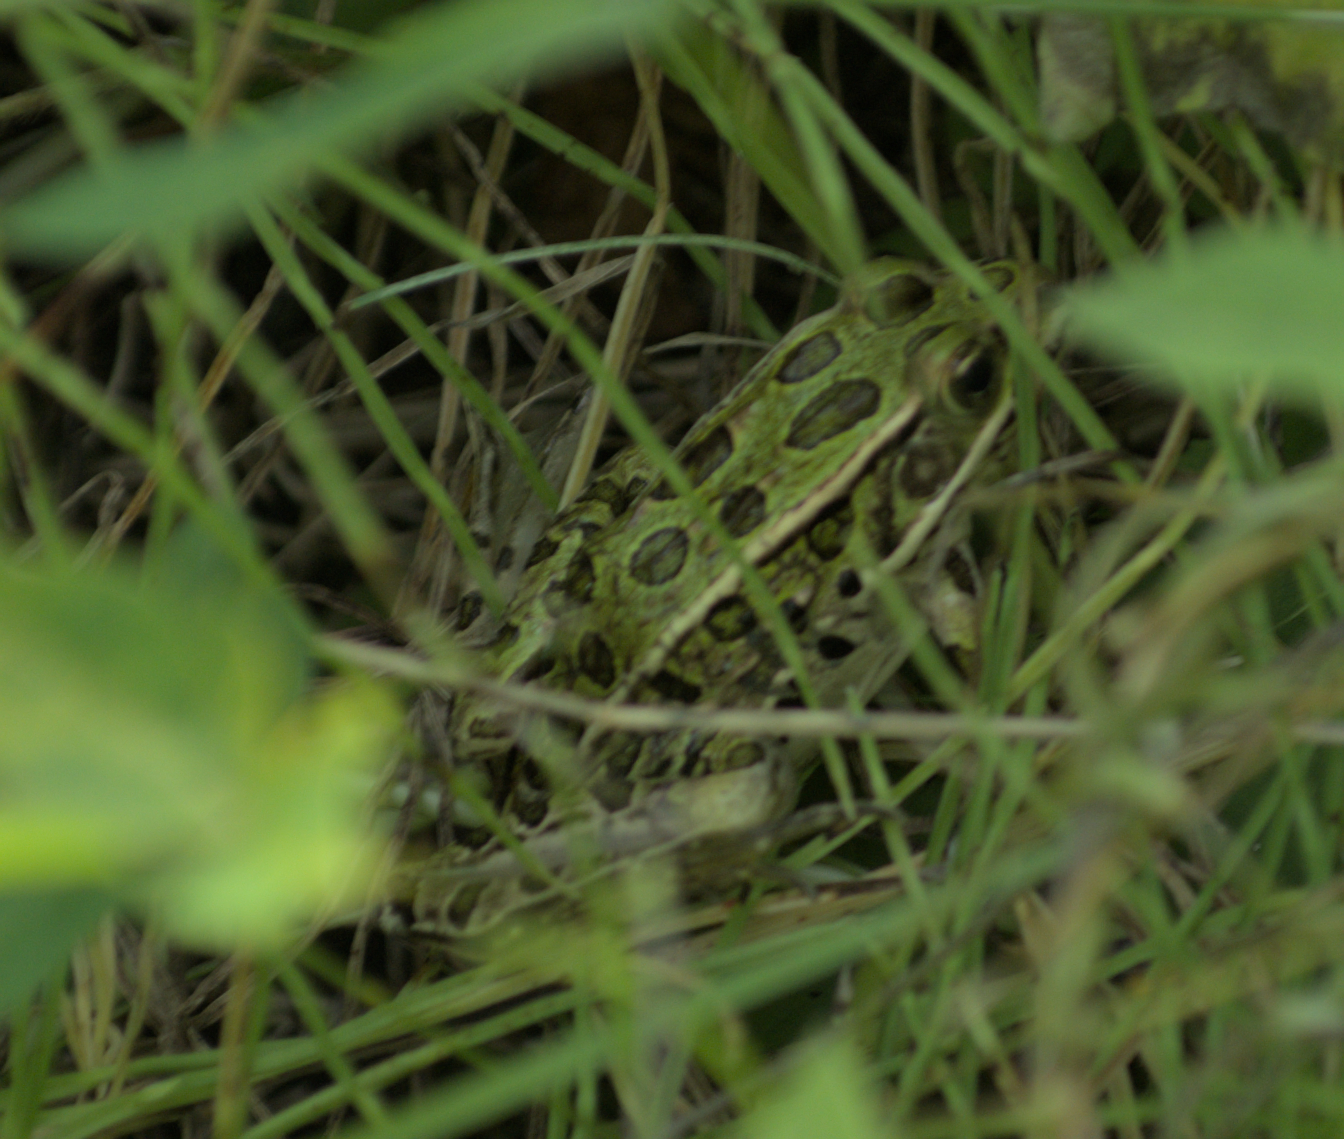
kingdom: Animalia
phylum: Chordata
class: Amphibia
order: Anura
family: Ranidae
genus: Lithobates
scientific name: Lithobates pipiens
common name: Northern leopard frog
